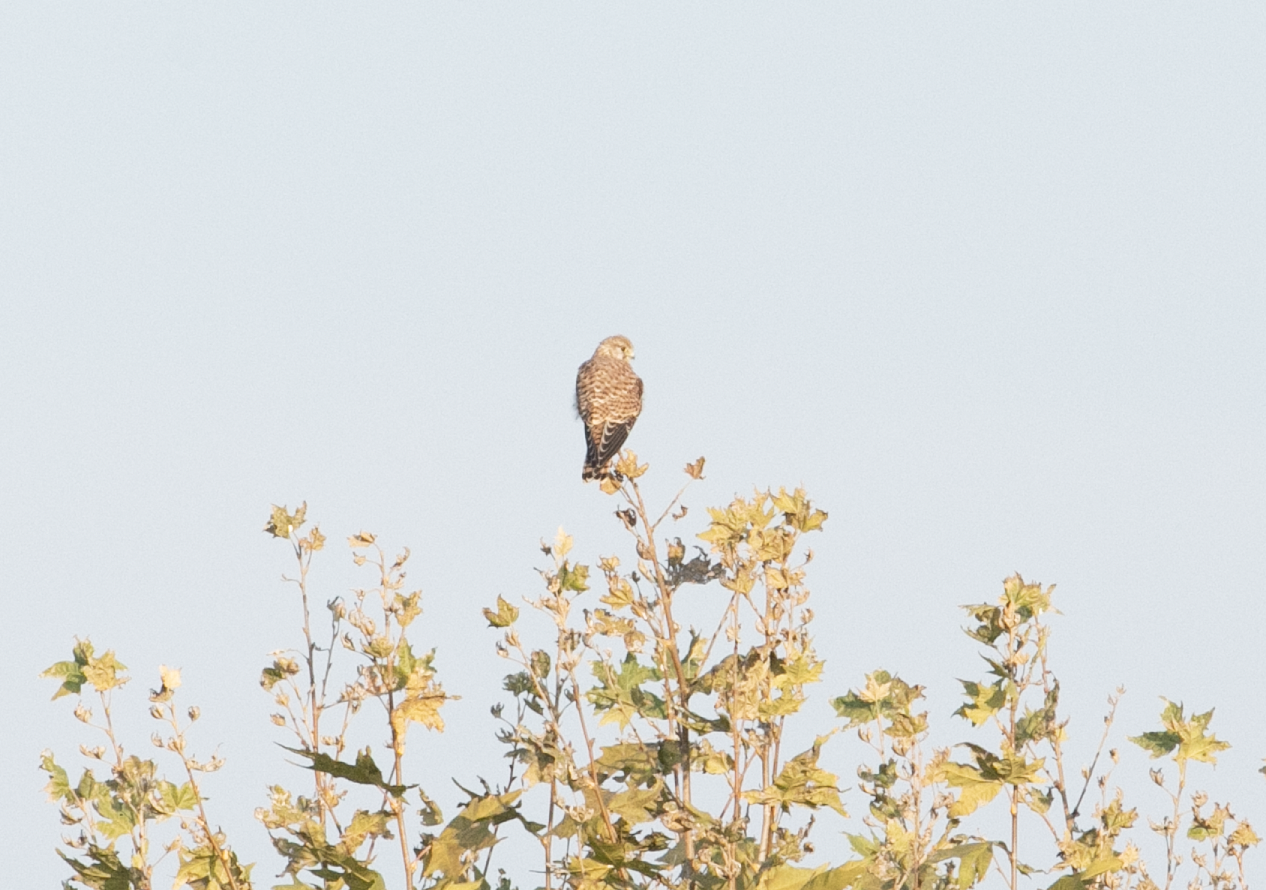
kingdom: Animalia
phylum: Chordata
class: Aves
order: Falconiformes
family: Falconidae
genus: Falco
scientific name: Falco tinnunculus
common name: Common kestrel
